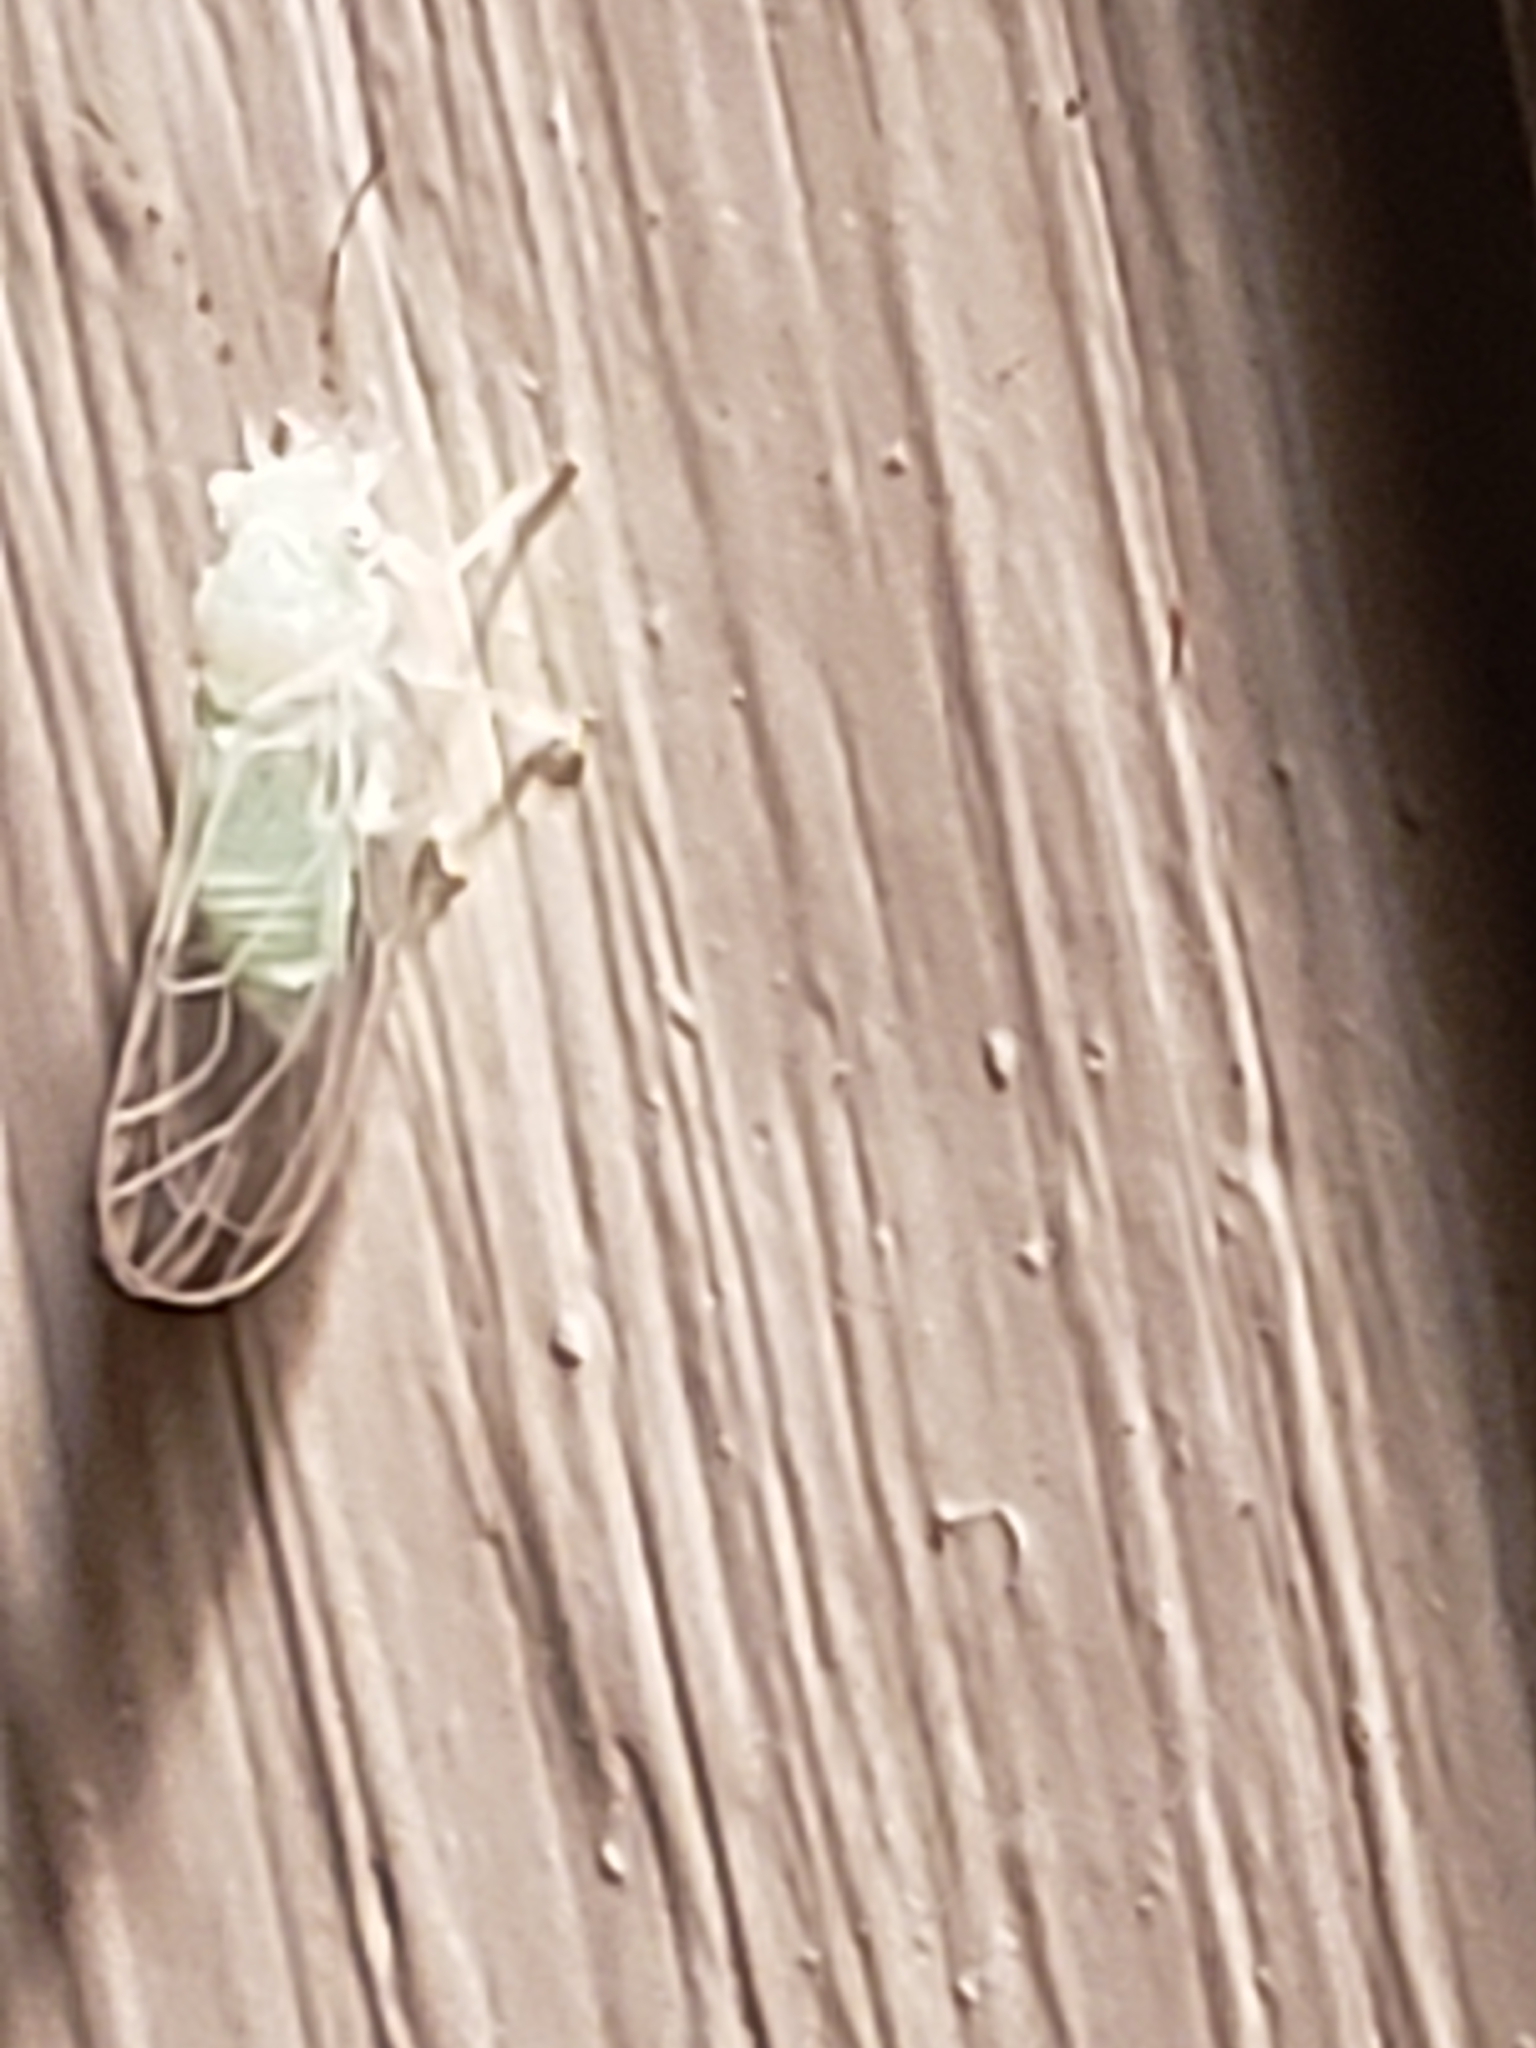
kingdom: Animalia
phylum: Arthropoda
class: Insecta
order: Hemiptera
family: Psyllidae
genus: Cacopsylla
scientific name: Cacopsylla annulata
